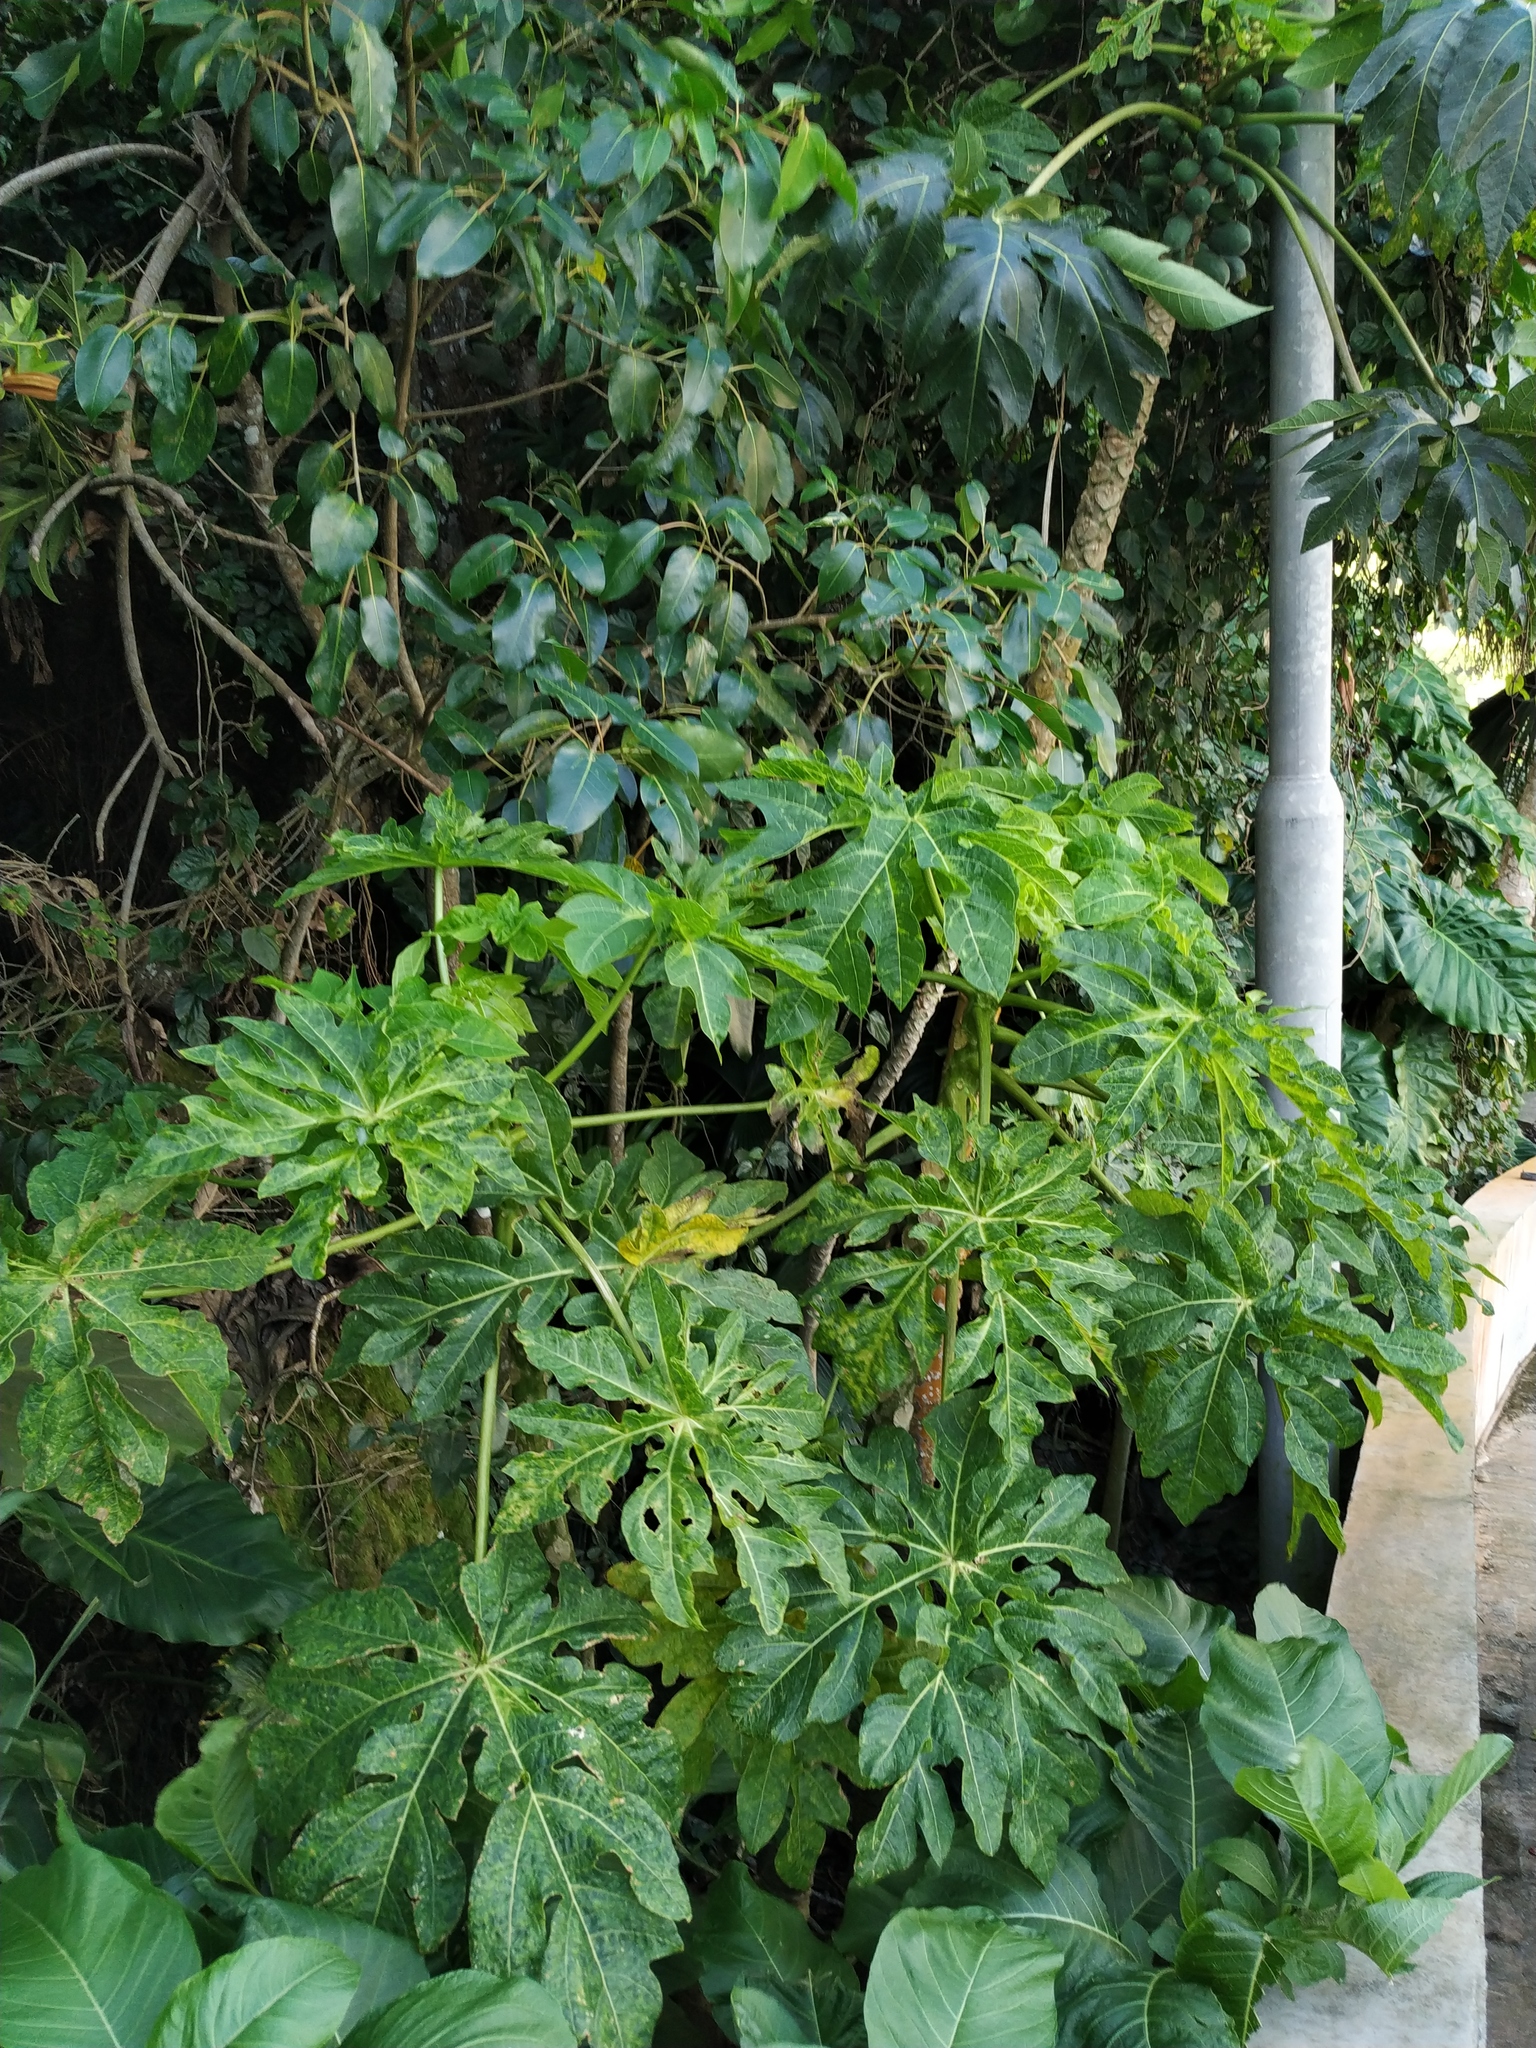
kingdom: Plantae
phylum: Tracheophyta
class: Magnoliopsida
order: Brassicales
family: Caricaceae
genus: Carica
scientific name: Carica papaya
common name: Papaya
